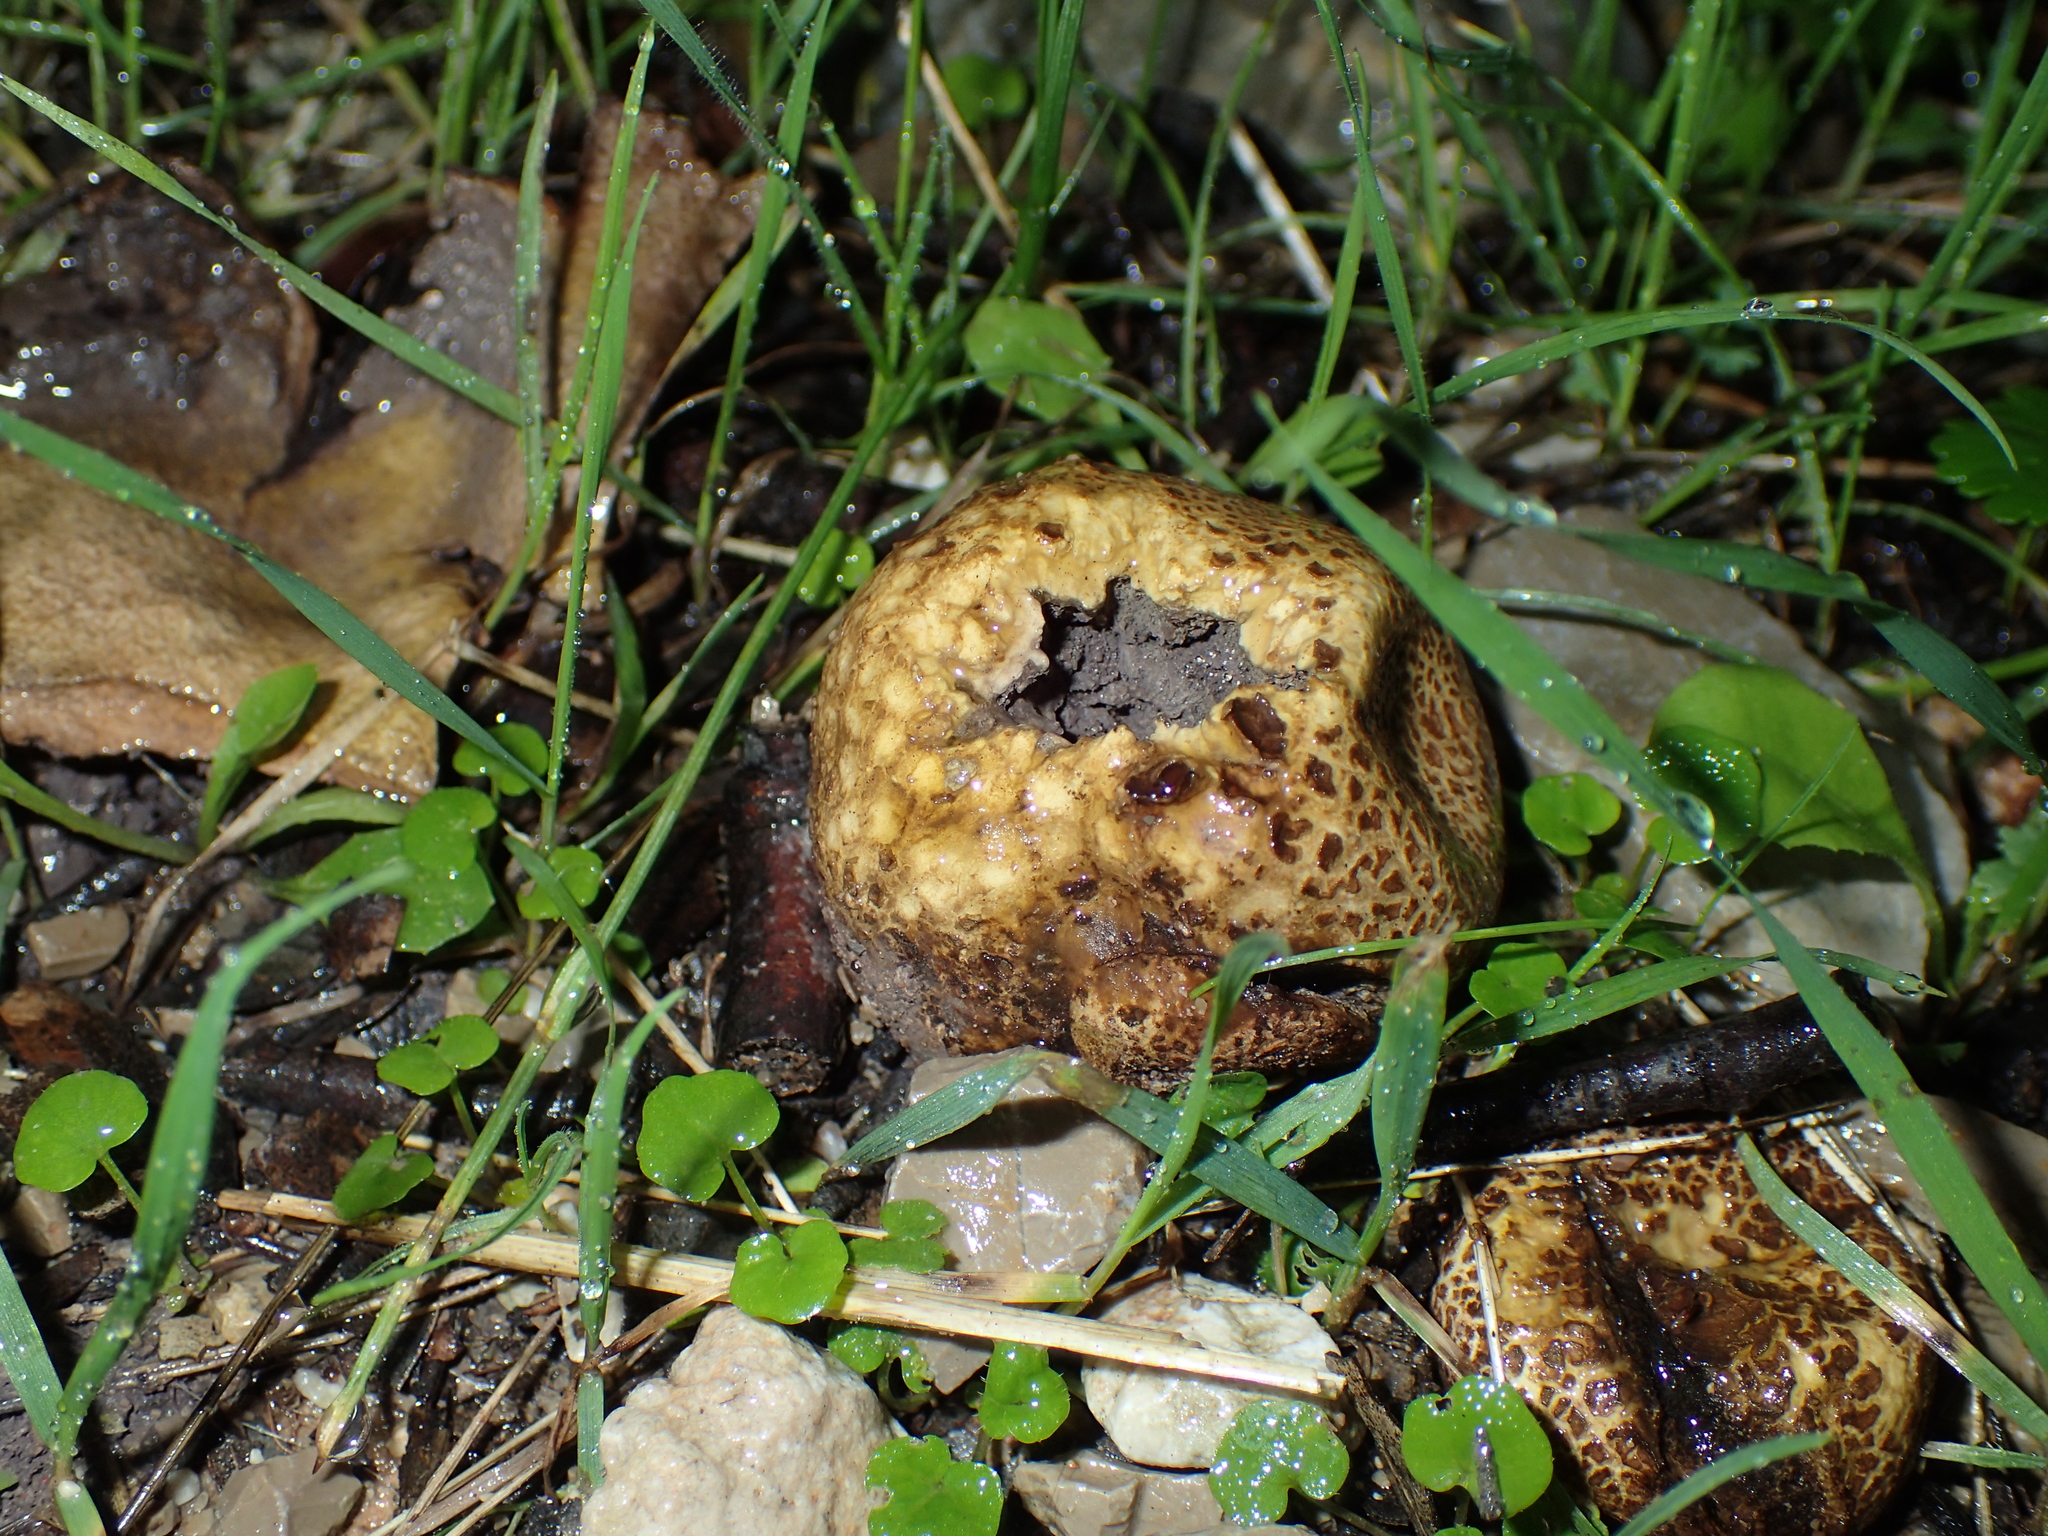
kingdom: Fungi
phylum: Basidiomycota
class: Agaricomycetes
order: Boletales
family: Sclerodermataceae
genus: Scleroderma
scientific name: Scleroderma citrinum
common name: Common earthball
